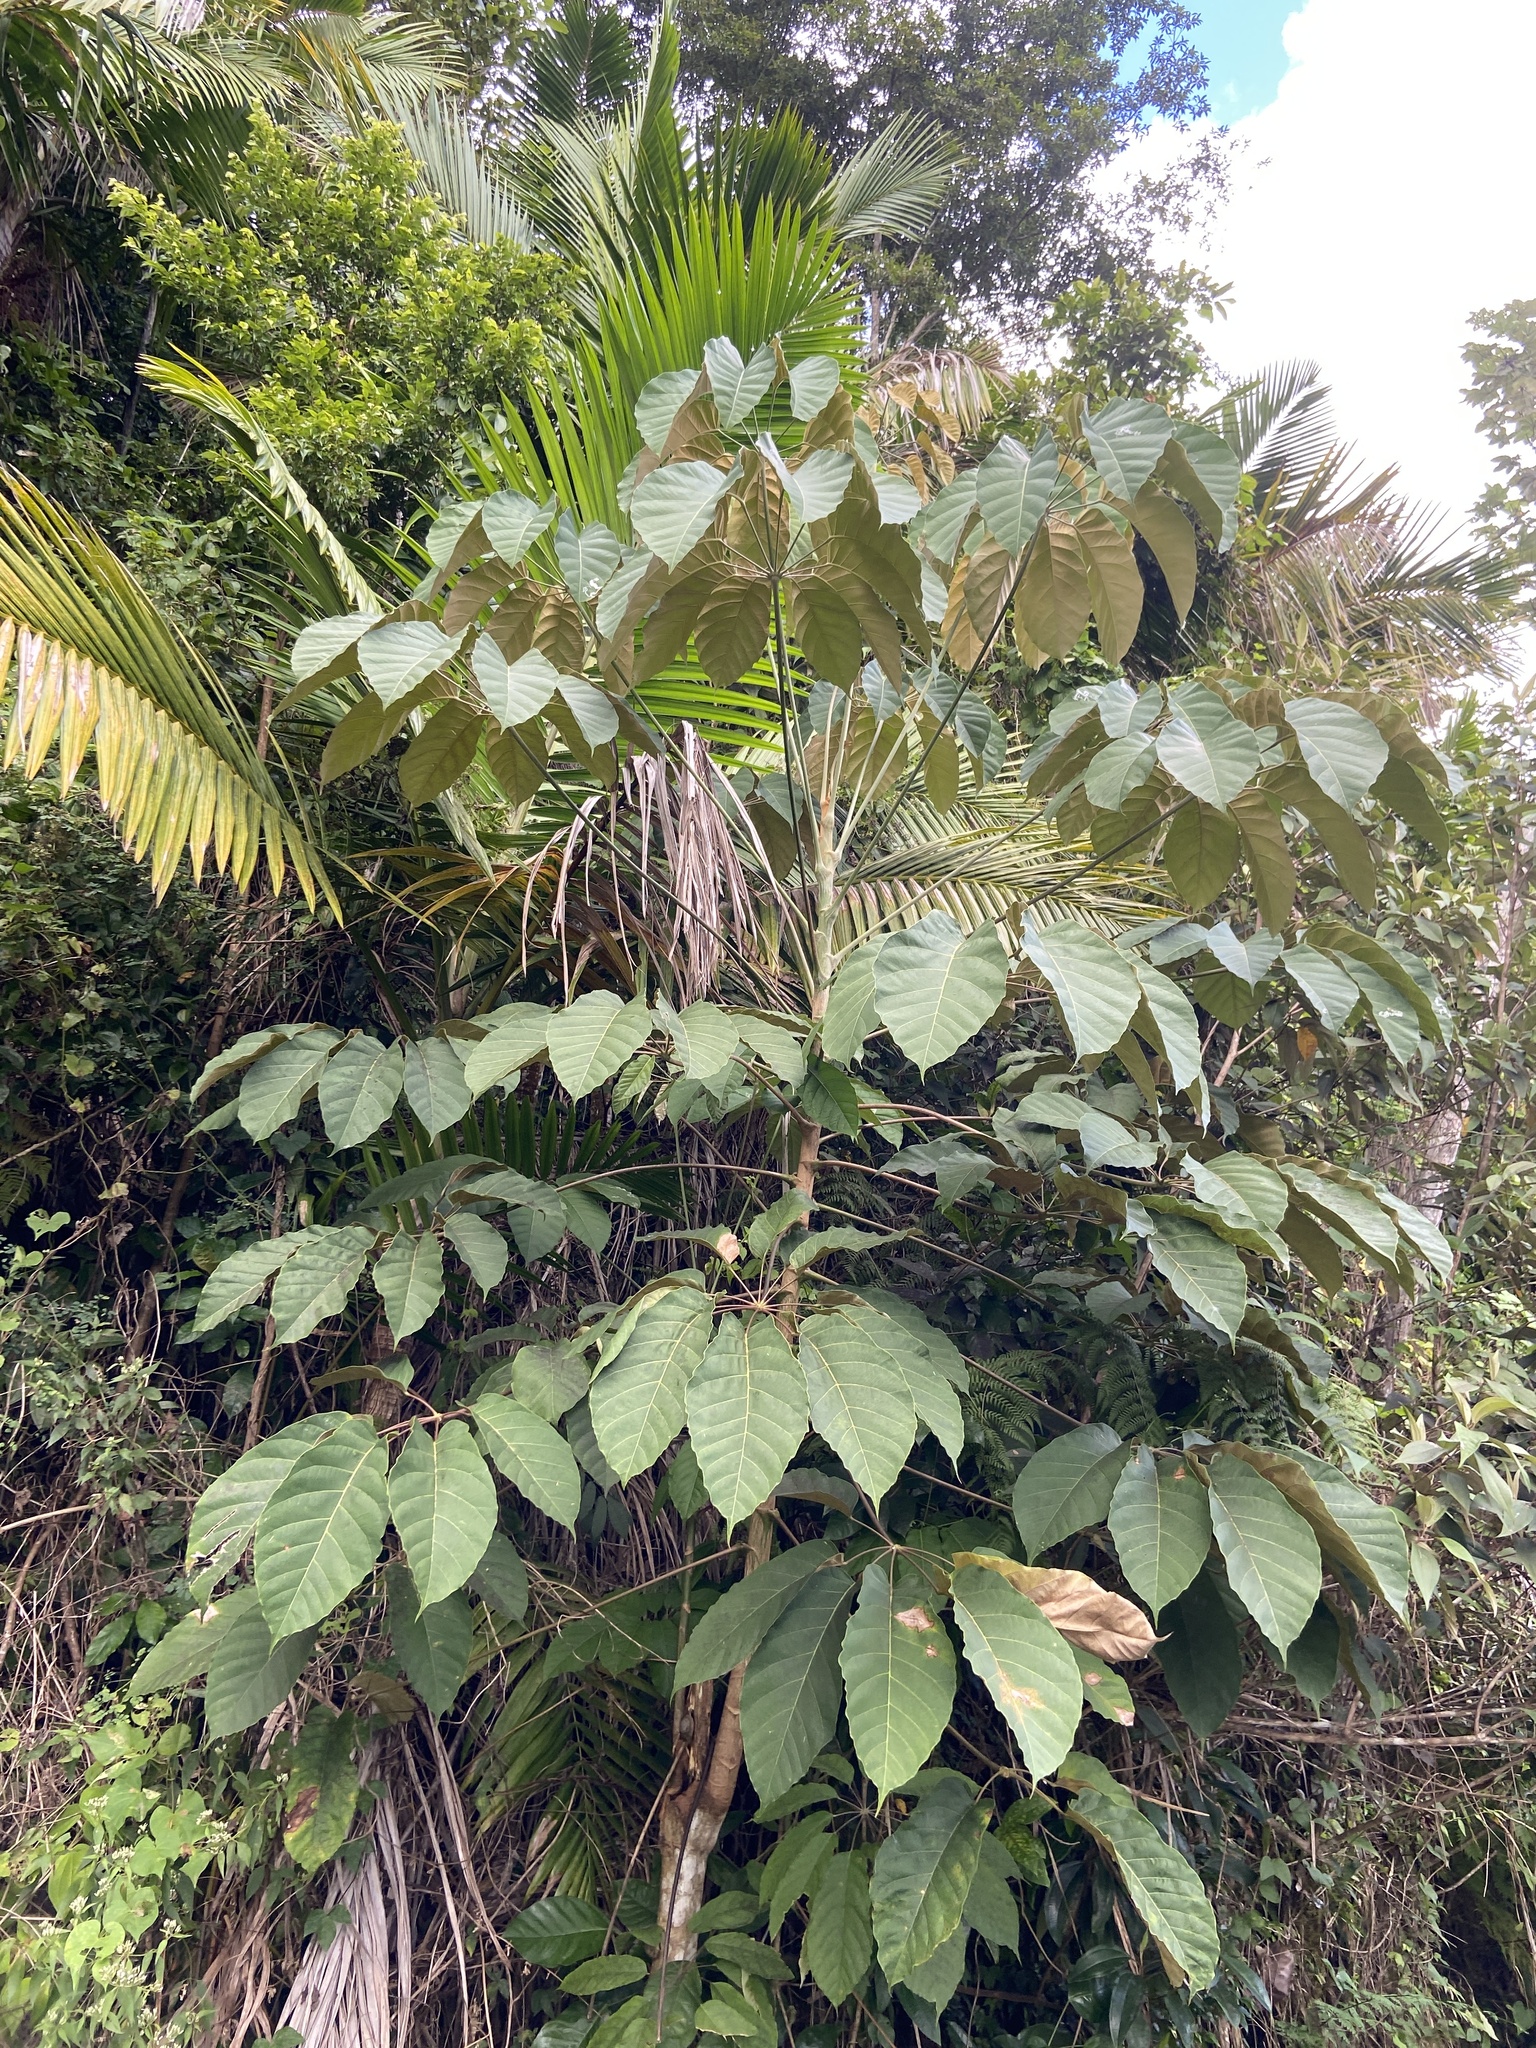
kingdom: Plantae
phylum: Tracheophyta
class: Magnoliopsida
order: Apiales
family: Araliaceae
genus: Didymopanax
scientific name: Didymopanax morototoni
